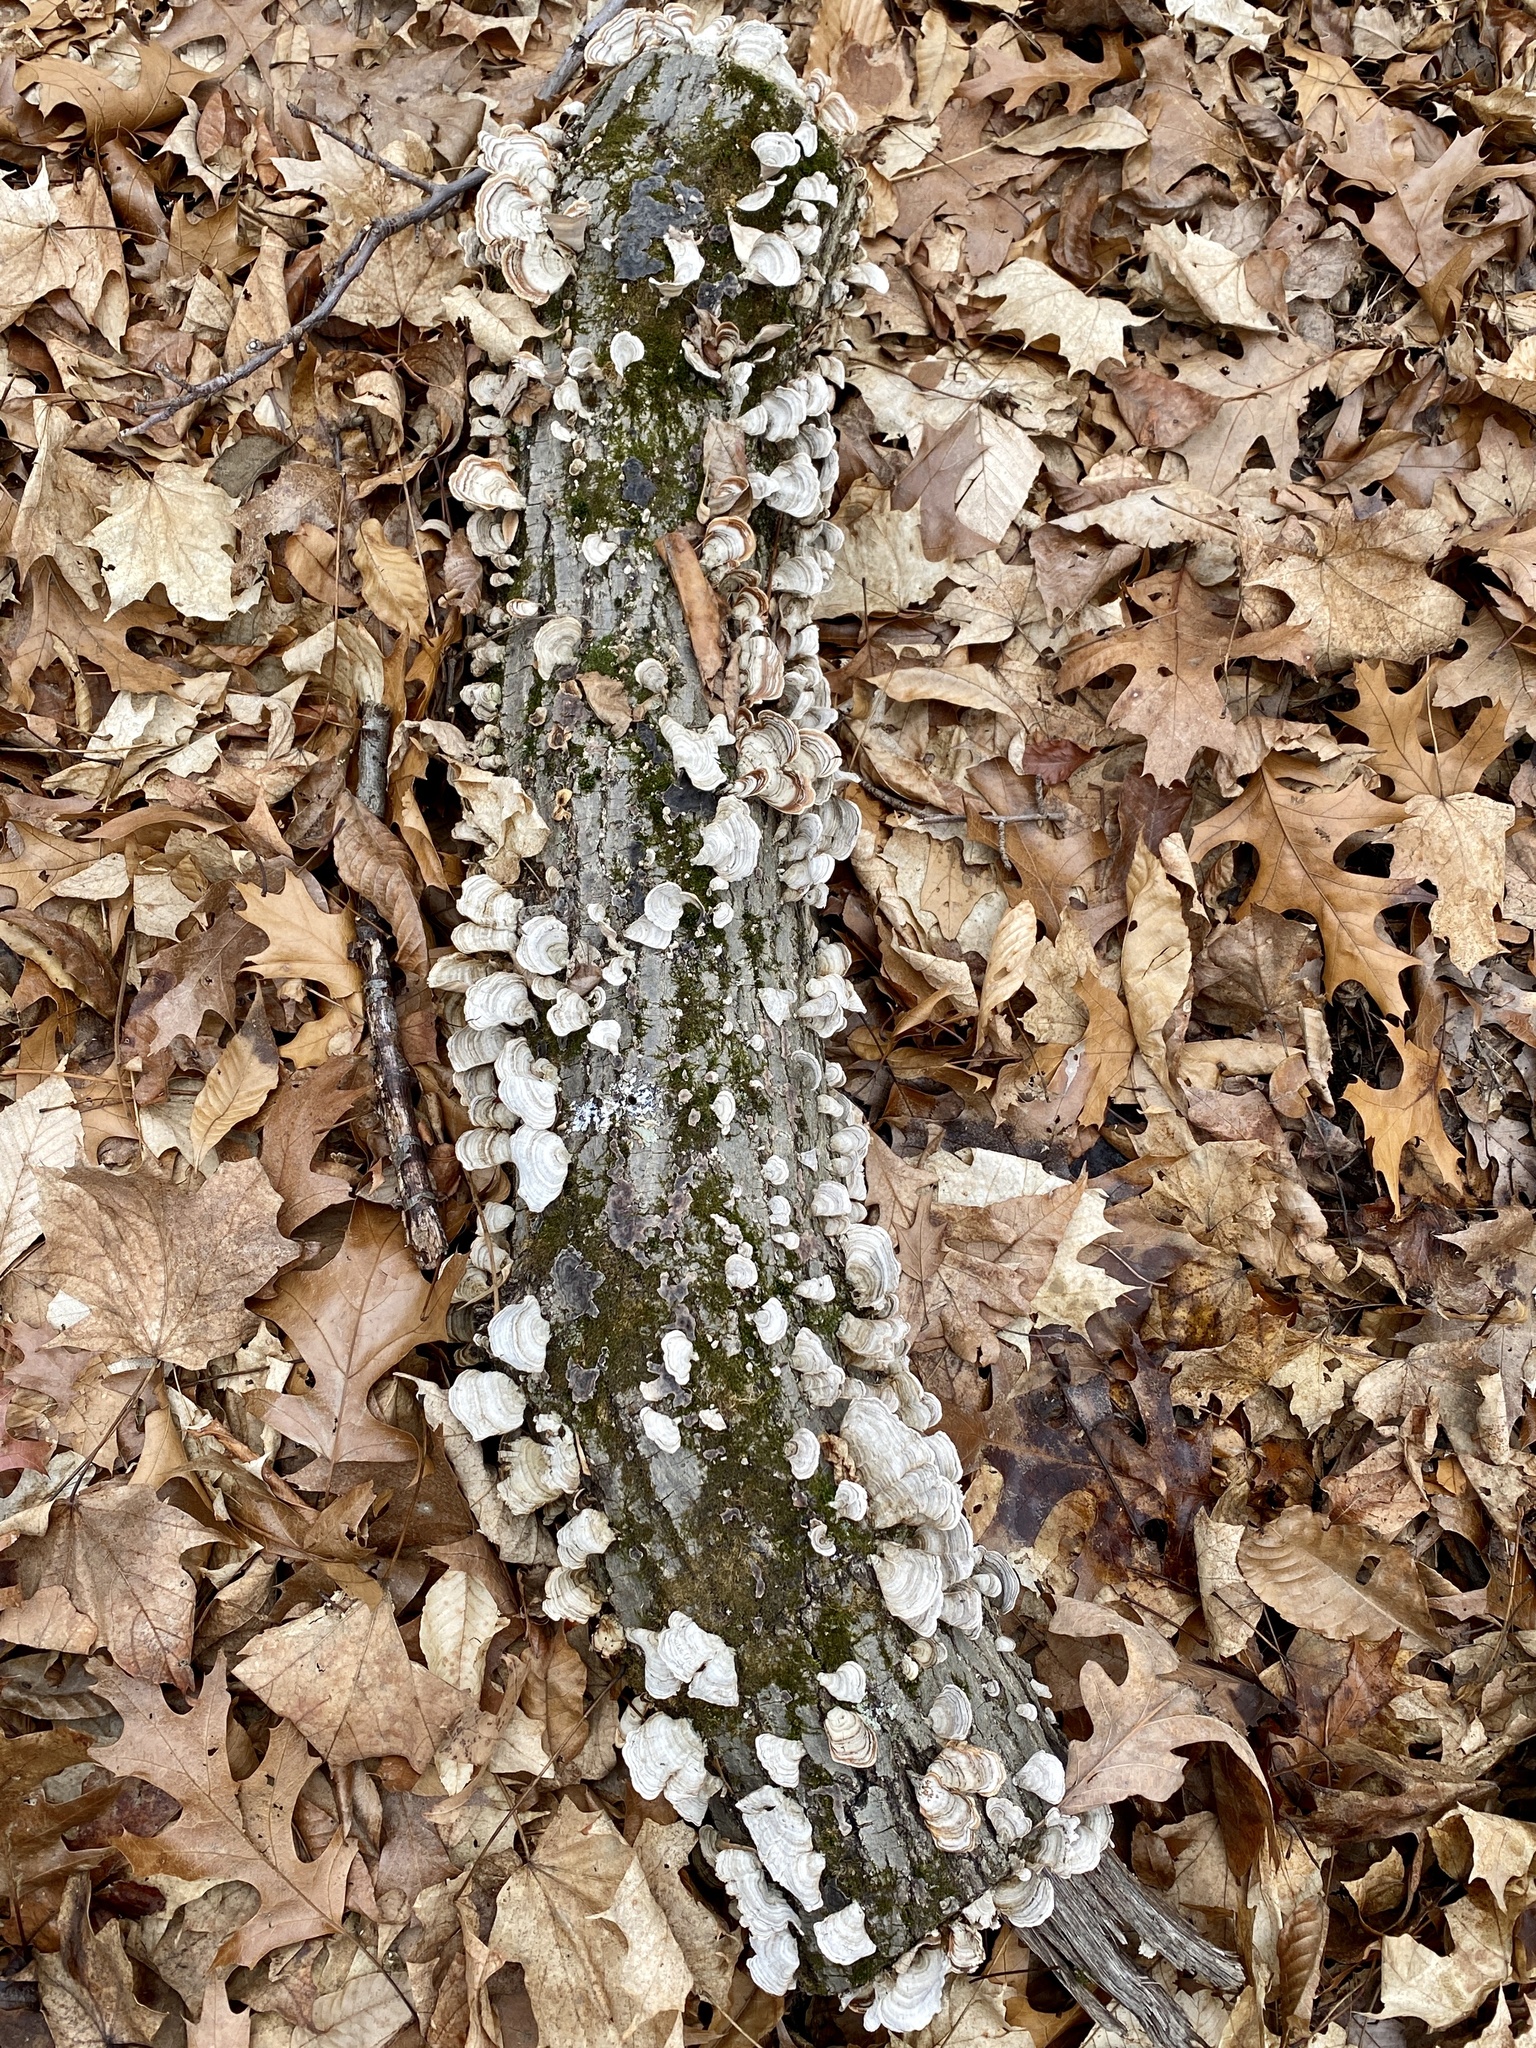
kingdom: Fungi
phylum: Basidiomycota
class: Agaricomycetes
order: Russulales
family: Stereaceae
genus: Stereum
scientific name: Stereum lobatum
